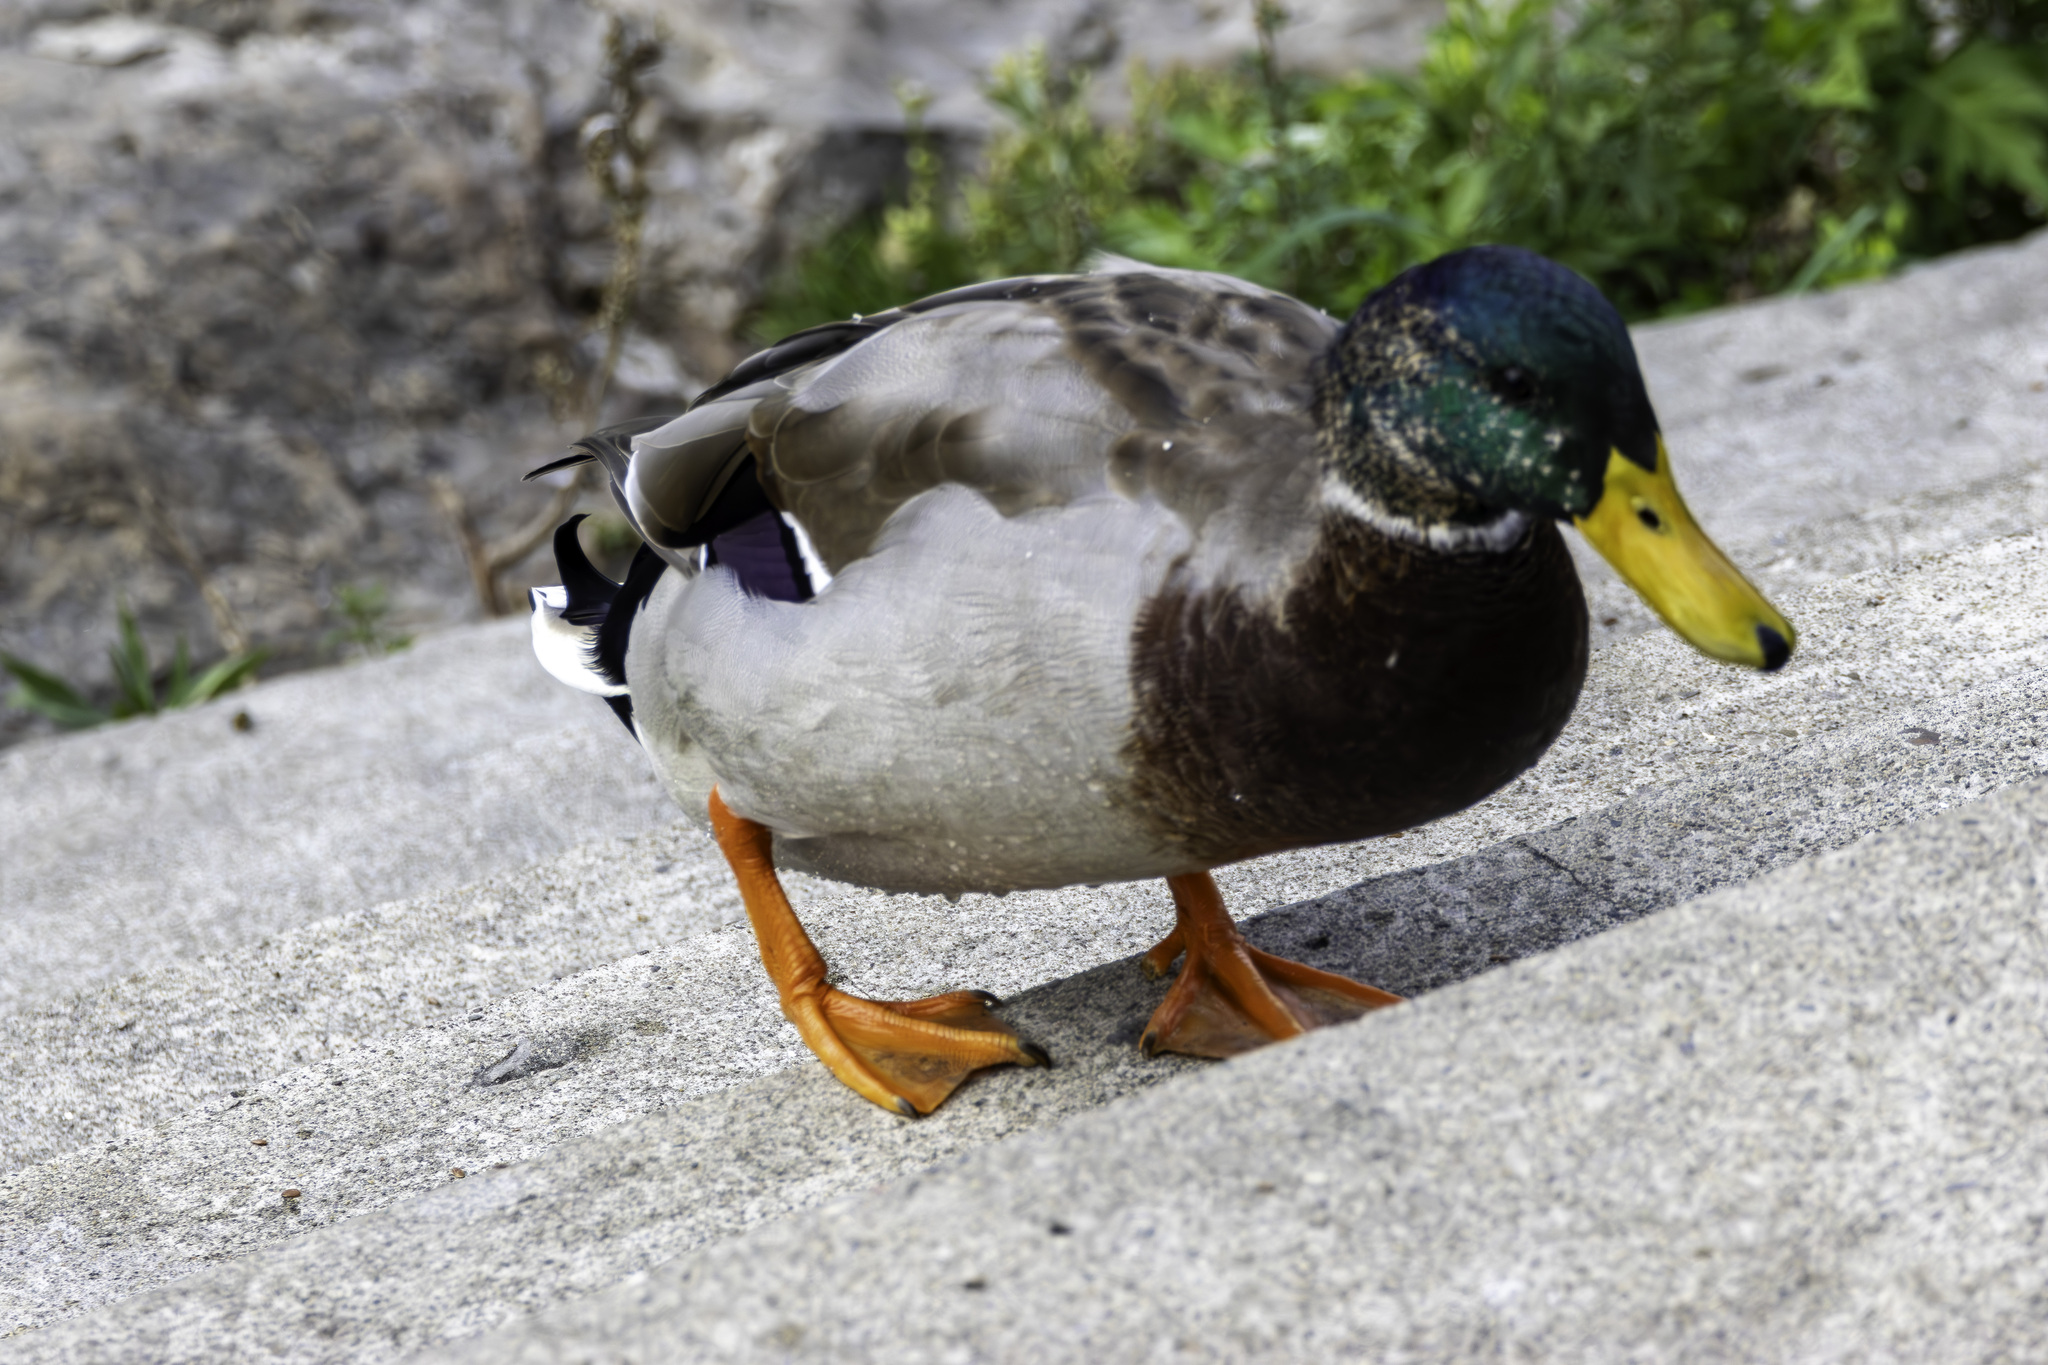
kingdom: Animalia
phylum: Chordata
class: Aves
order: Anseriformes
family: Anatidae
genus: Anas
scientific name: Anas platyrhynchos
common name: Mallard
